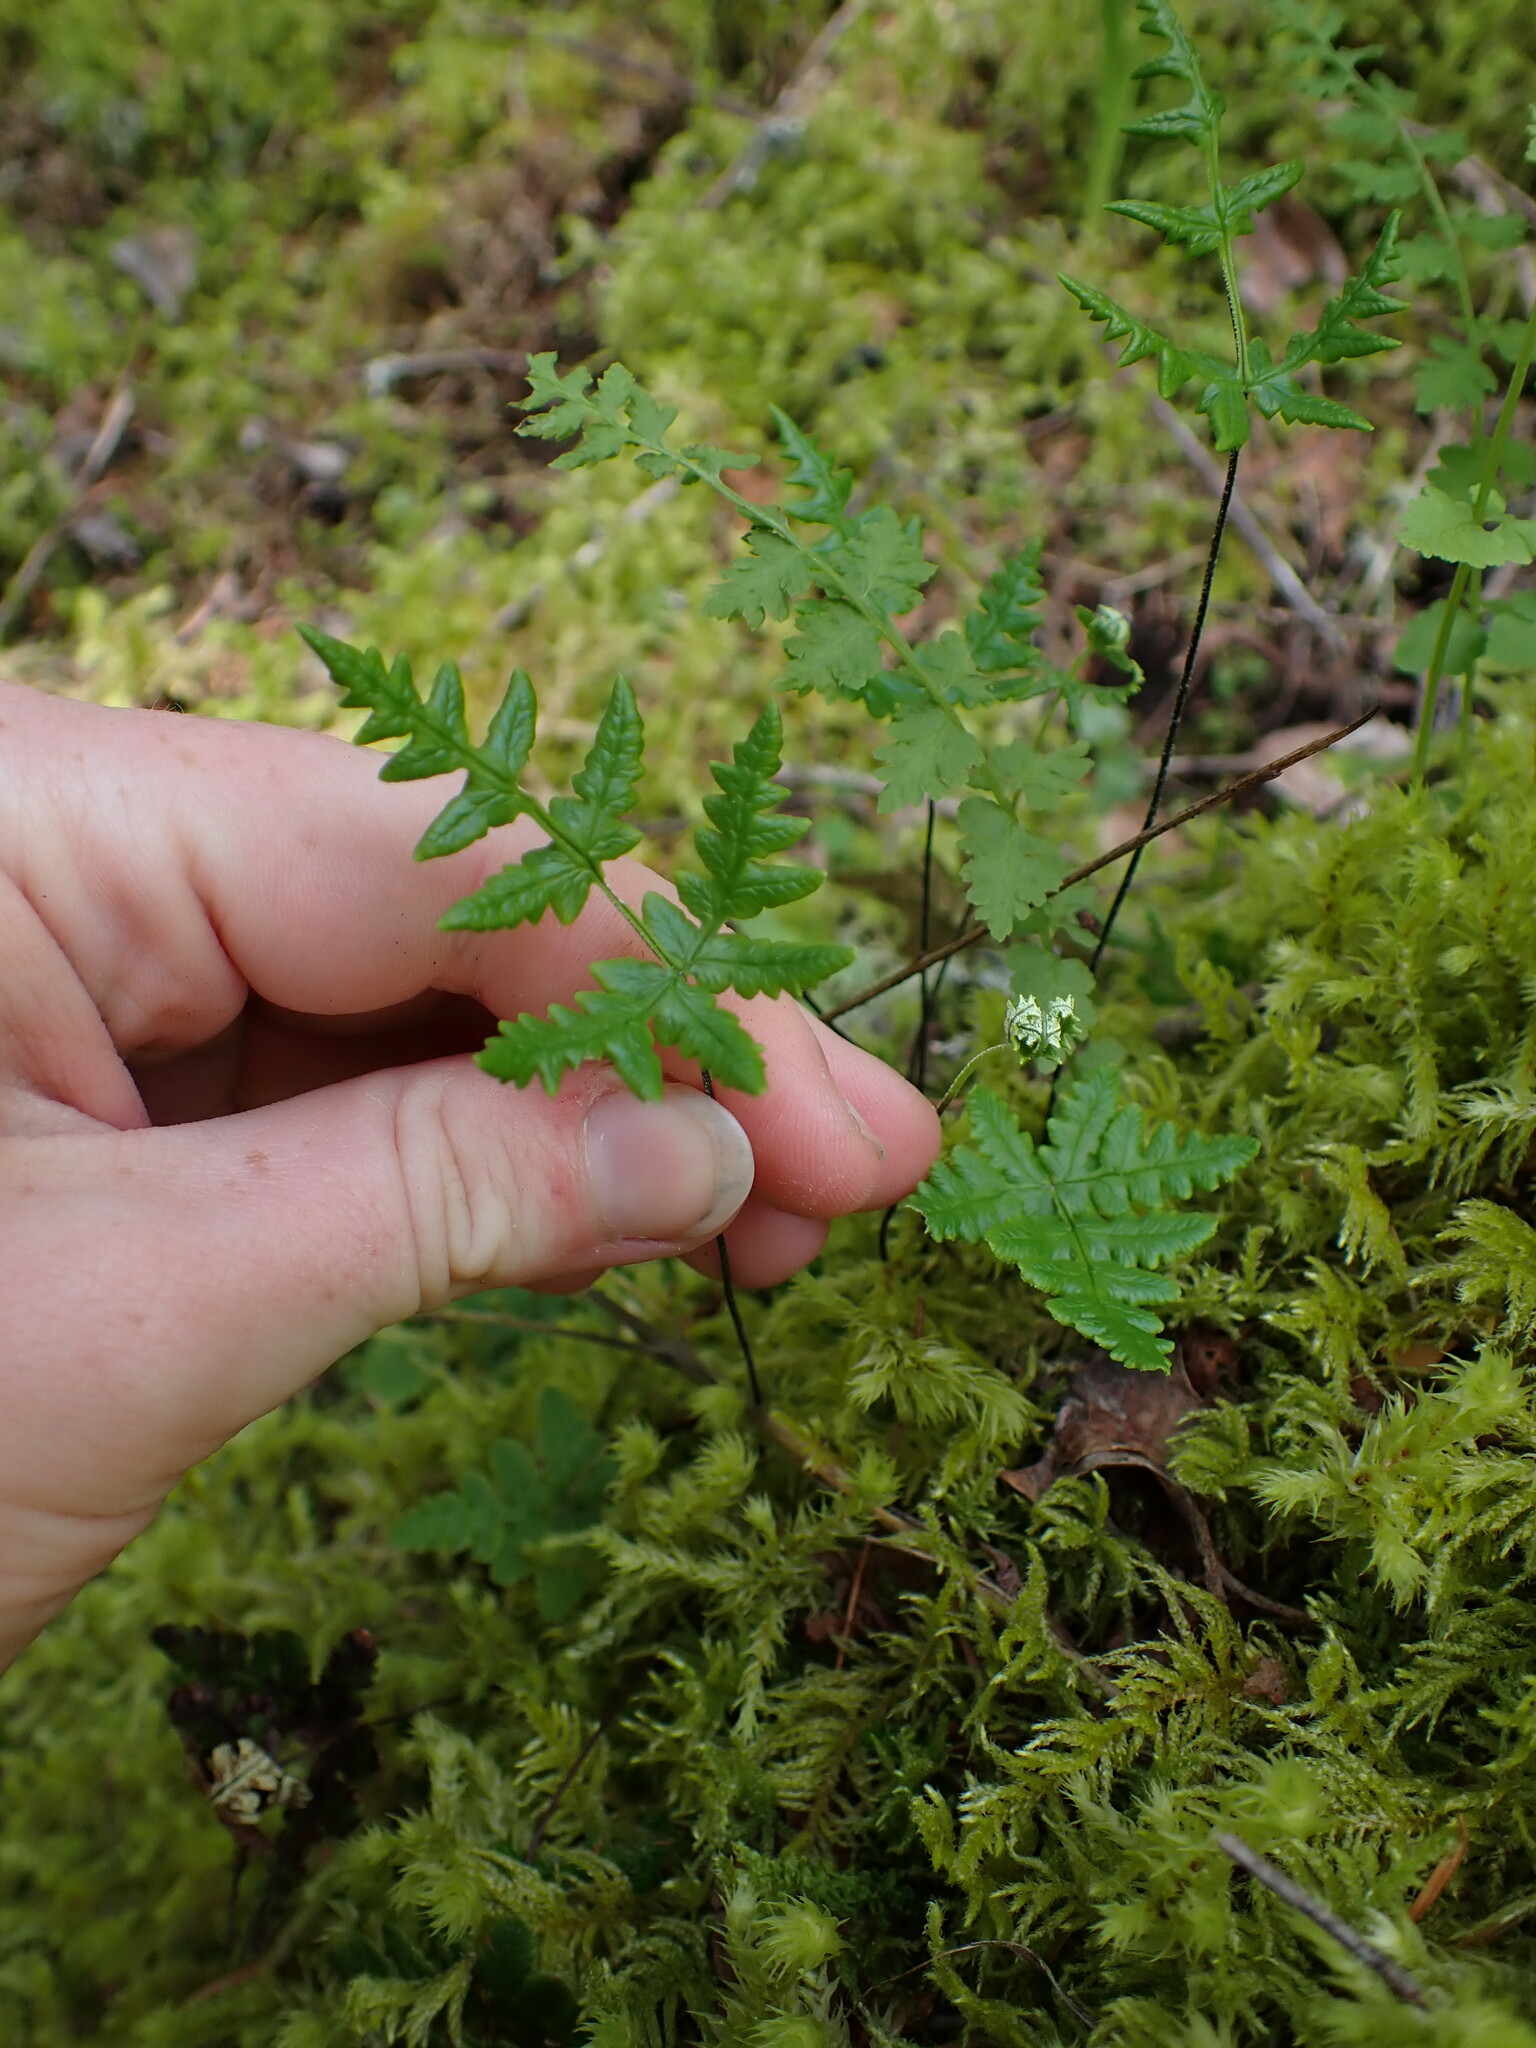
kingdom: Plantae
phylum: Tracheophyta
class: Polypodiopsida
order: Polypodiales
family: Pteridaceae
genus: Pentagramma
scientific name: Pentagramma triangularis
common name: Gold fern
